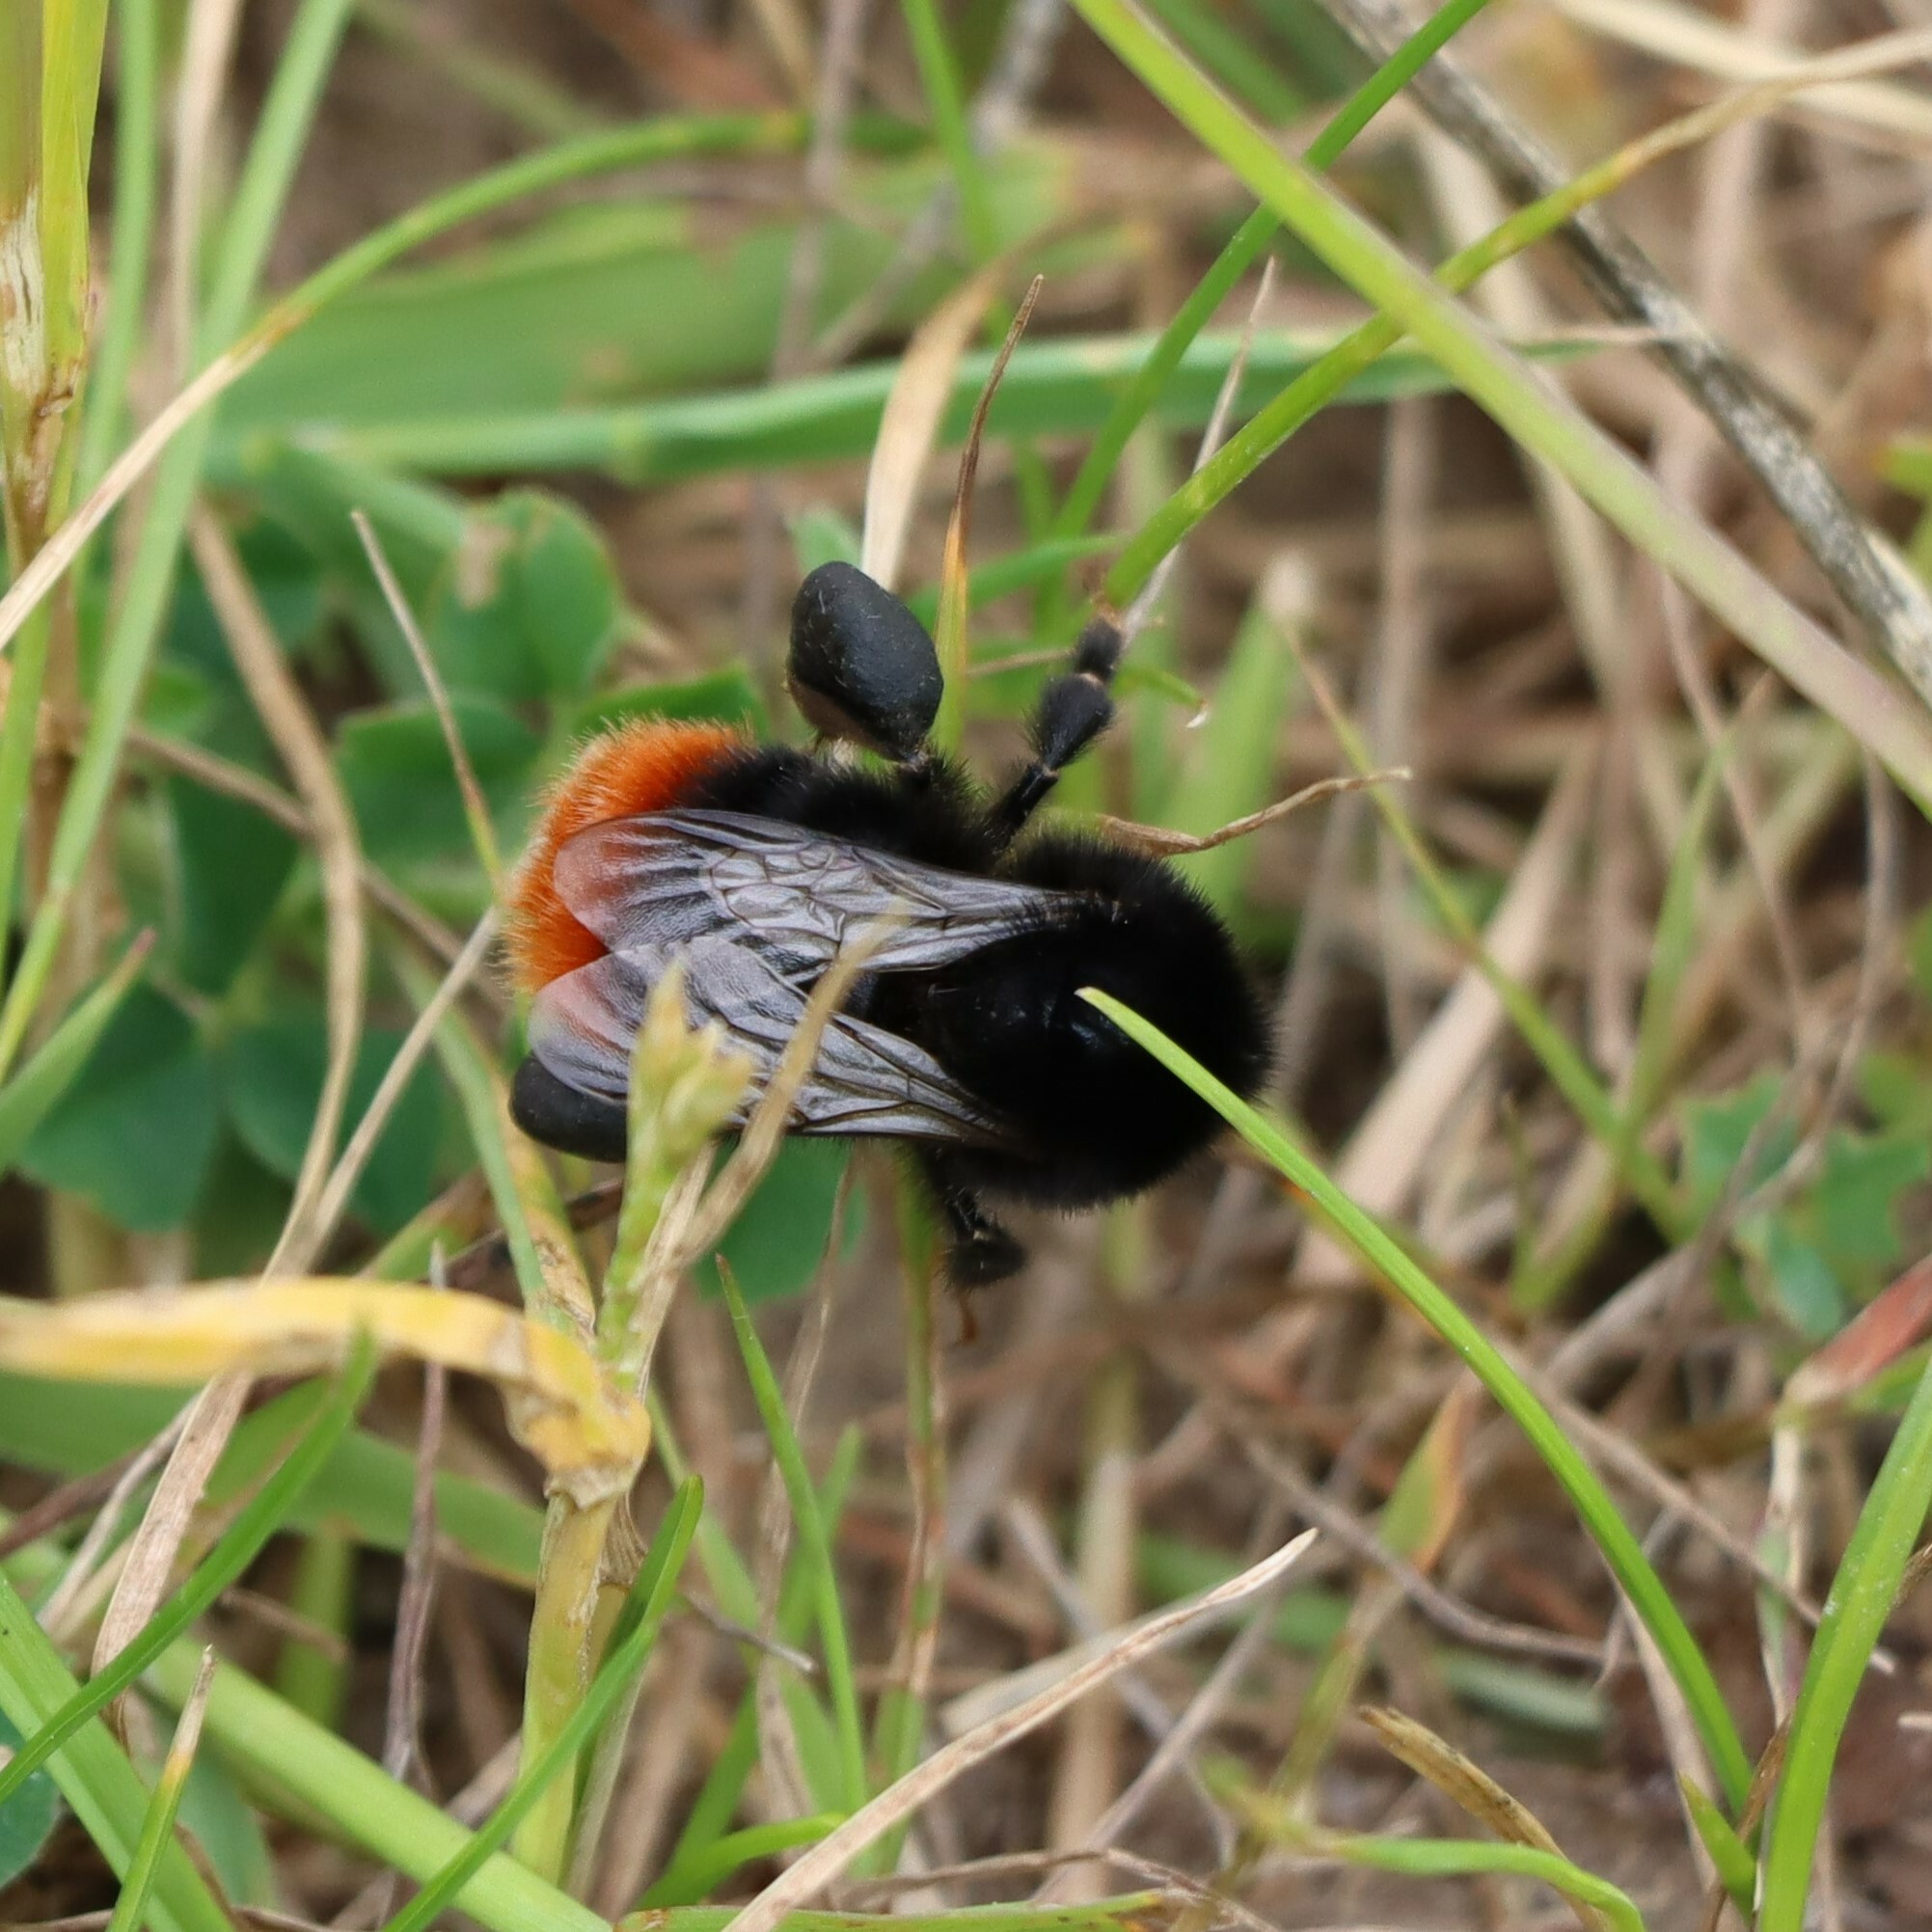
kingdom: Animalia
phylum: Arthropoda
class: Insecta
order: Hymenoptera
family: Apidae
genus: Bombus
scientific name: Bombus lapidarius
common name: Large red-tailed humble-bee
